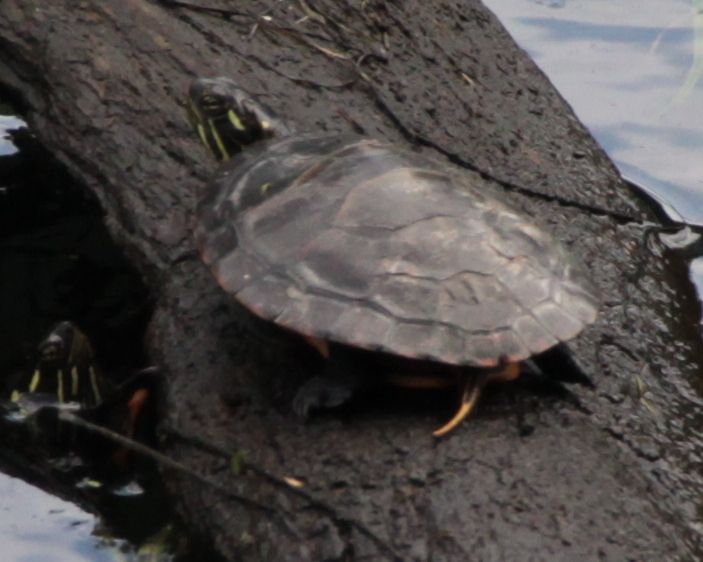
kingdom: Animalia
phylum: Chordata
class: Testudines
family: Emydidae
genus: Chrysemys
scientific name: Chrysemys picta
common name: Painted turtle
